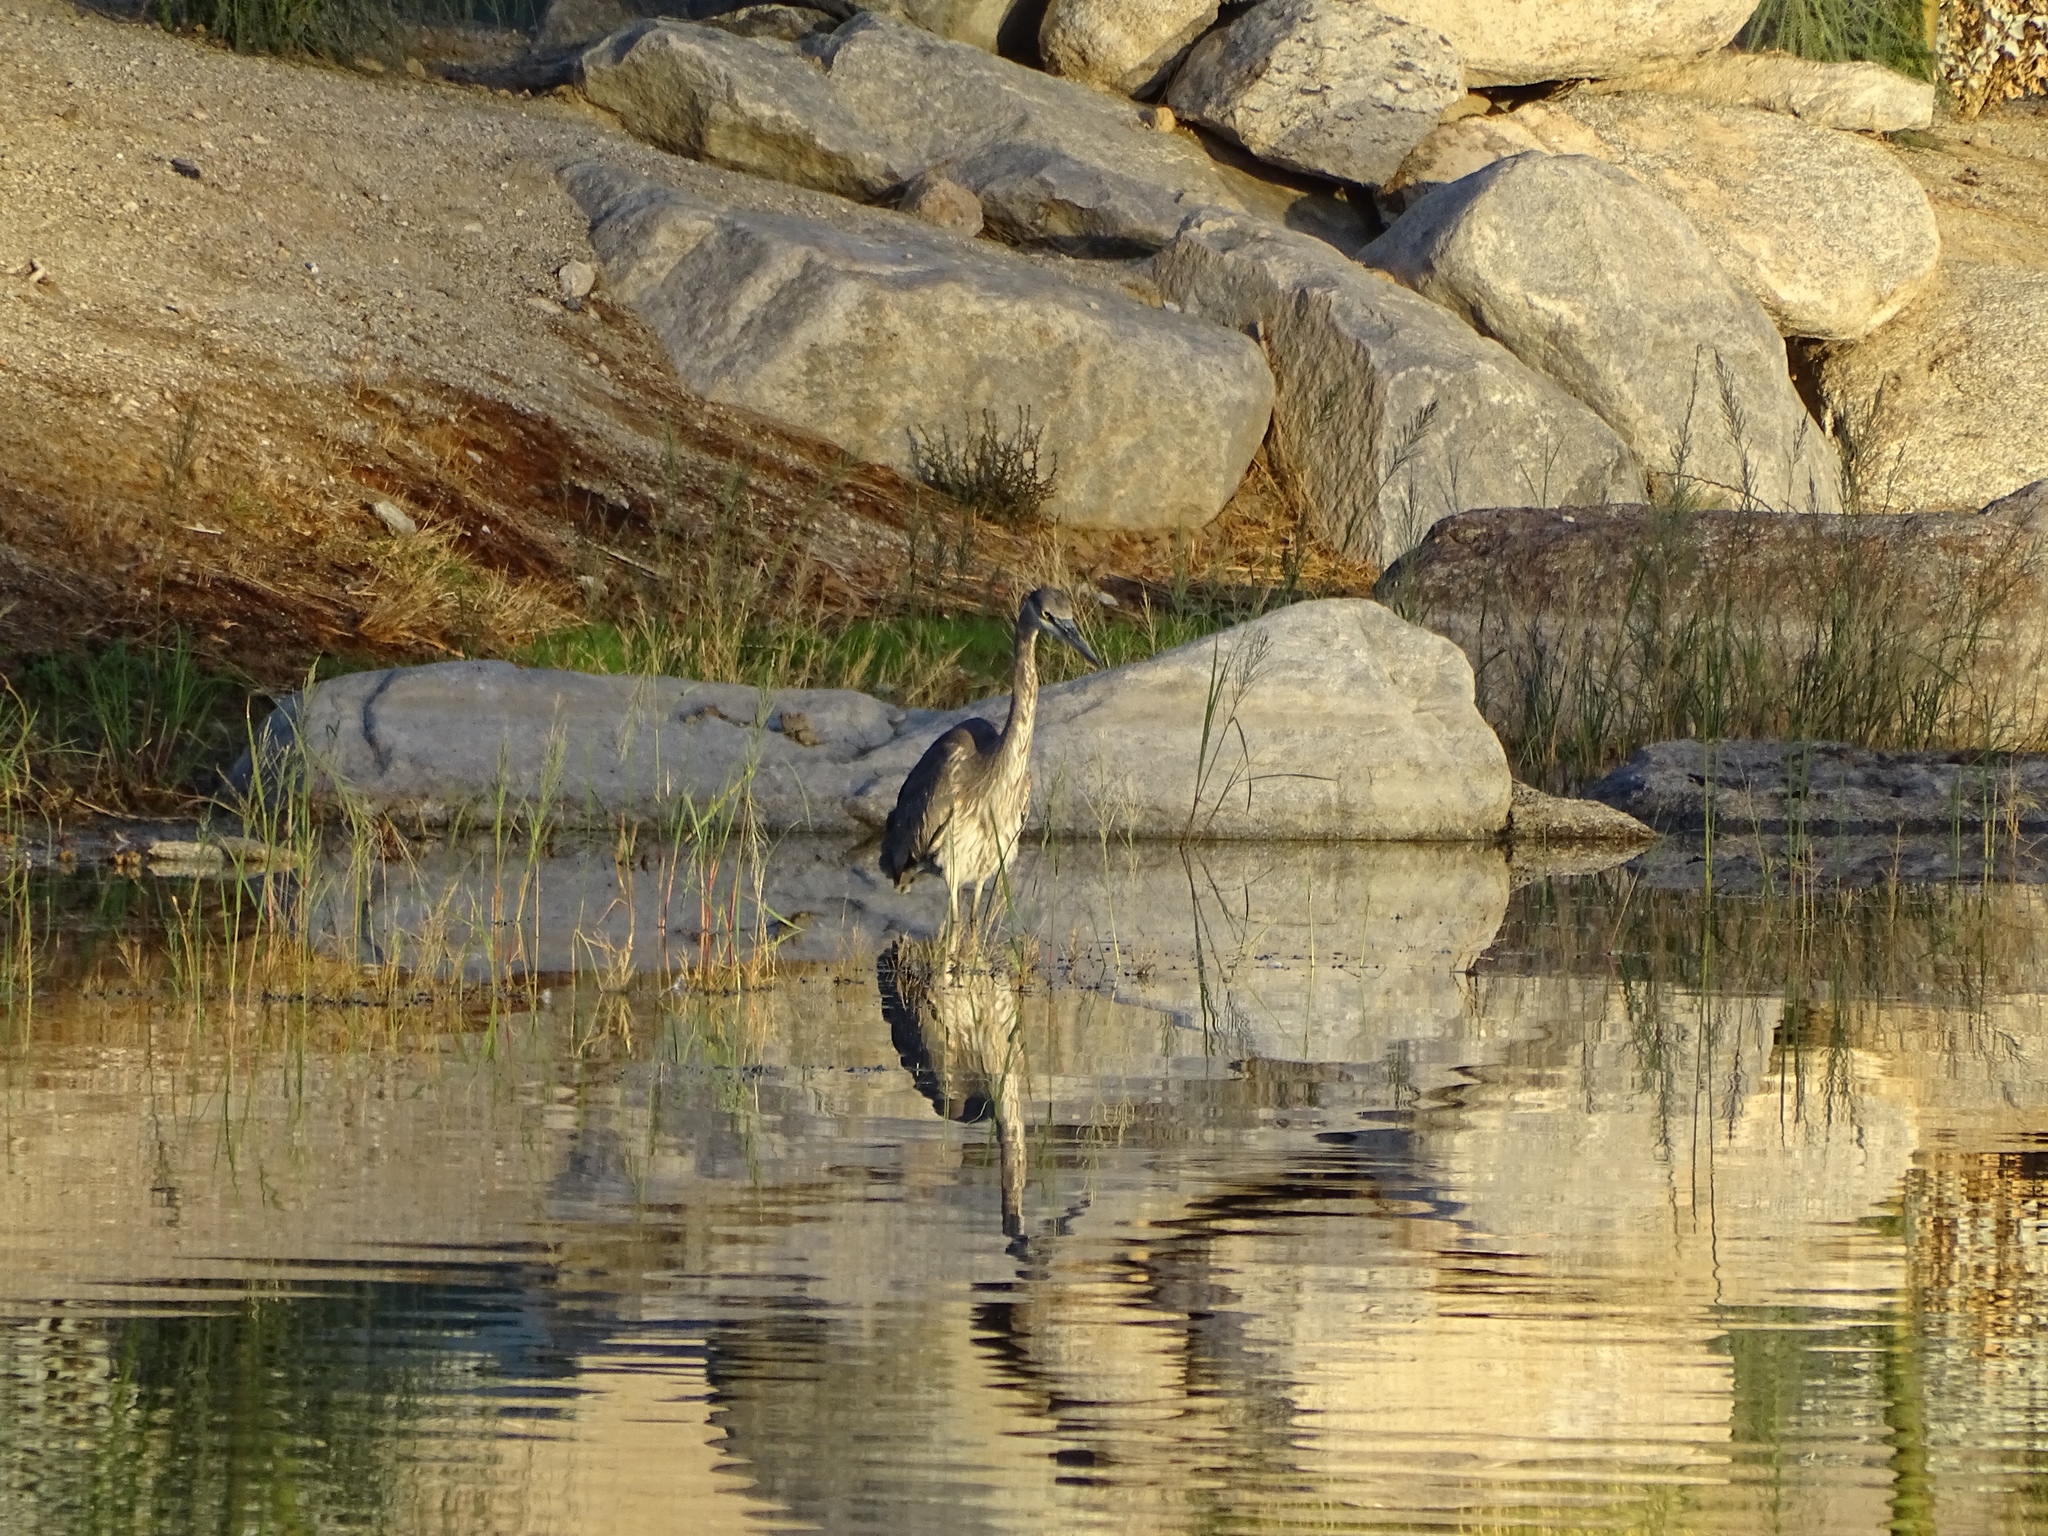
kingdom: Animalia
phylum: Chordata
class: Aves
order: Pelecaniformes
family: Ardeidae
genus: Ardea
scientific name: Ardea herodias
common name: Great blue heron
